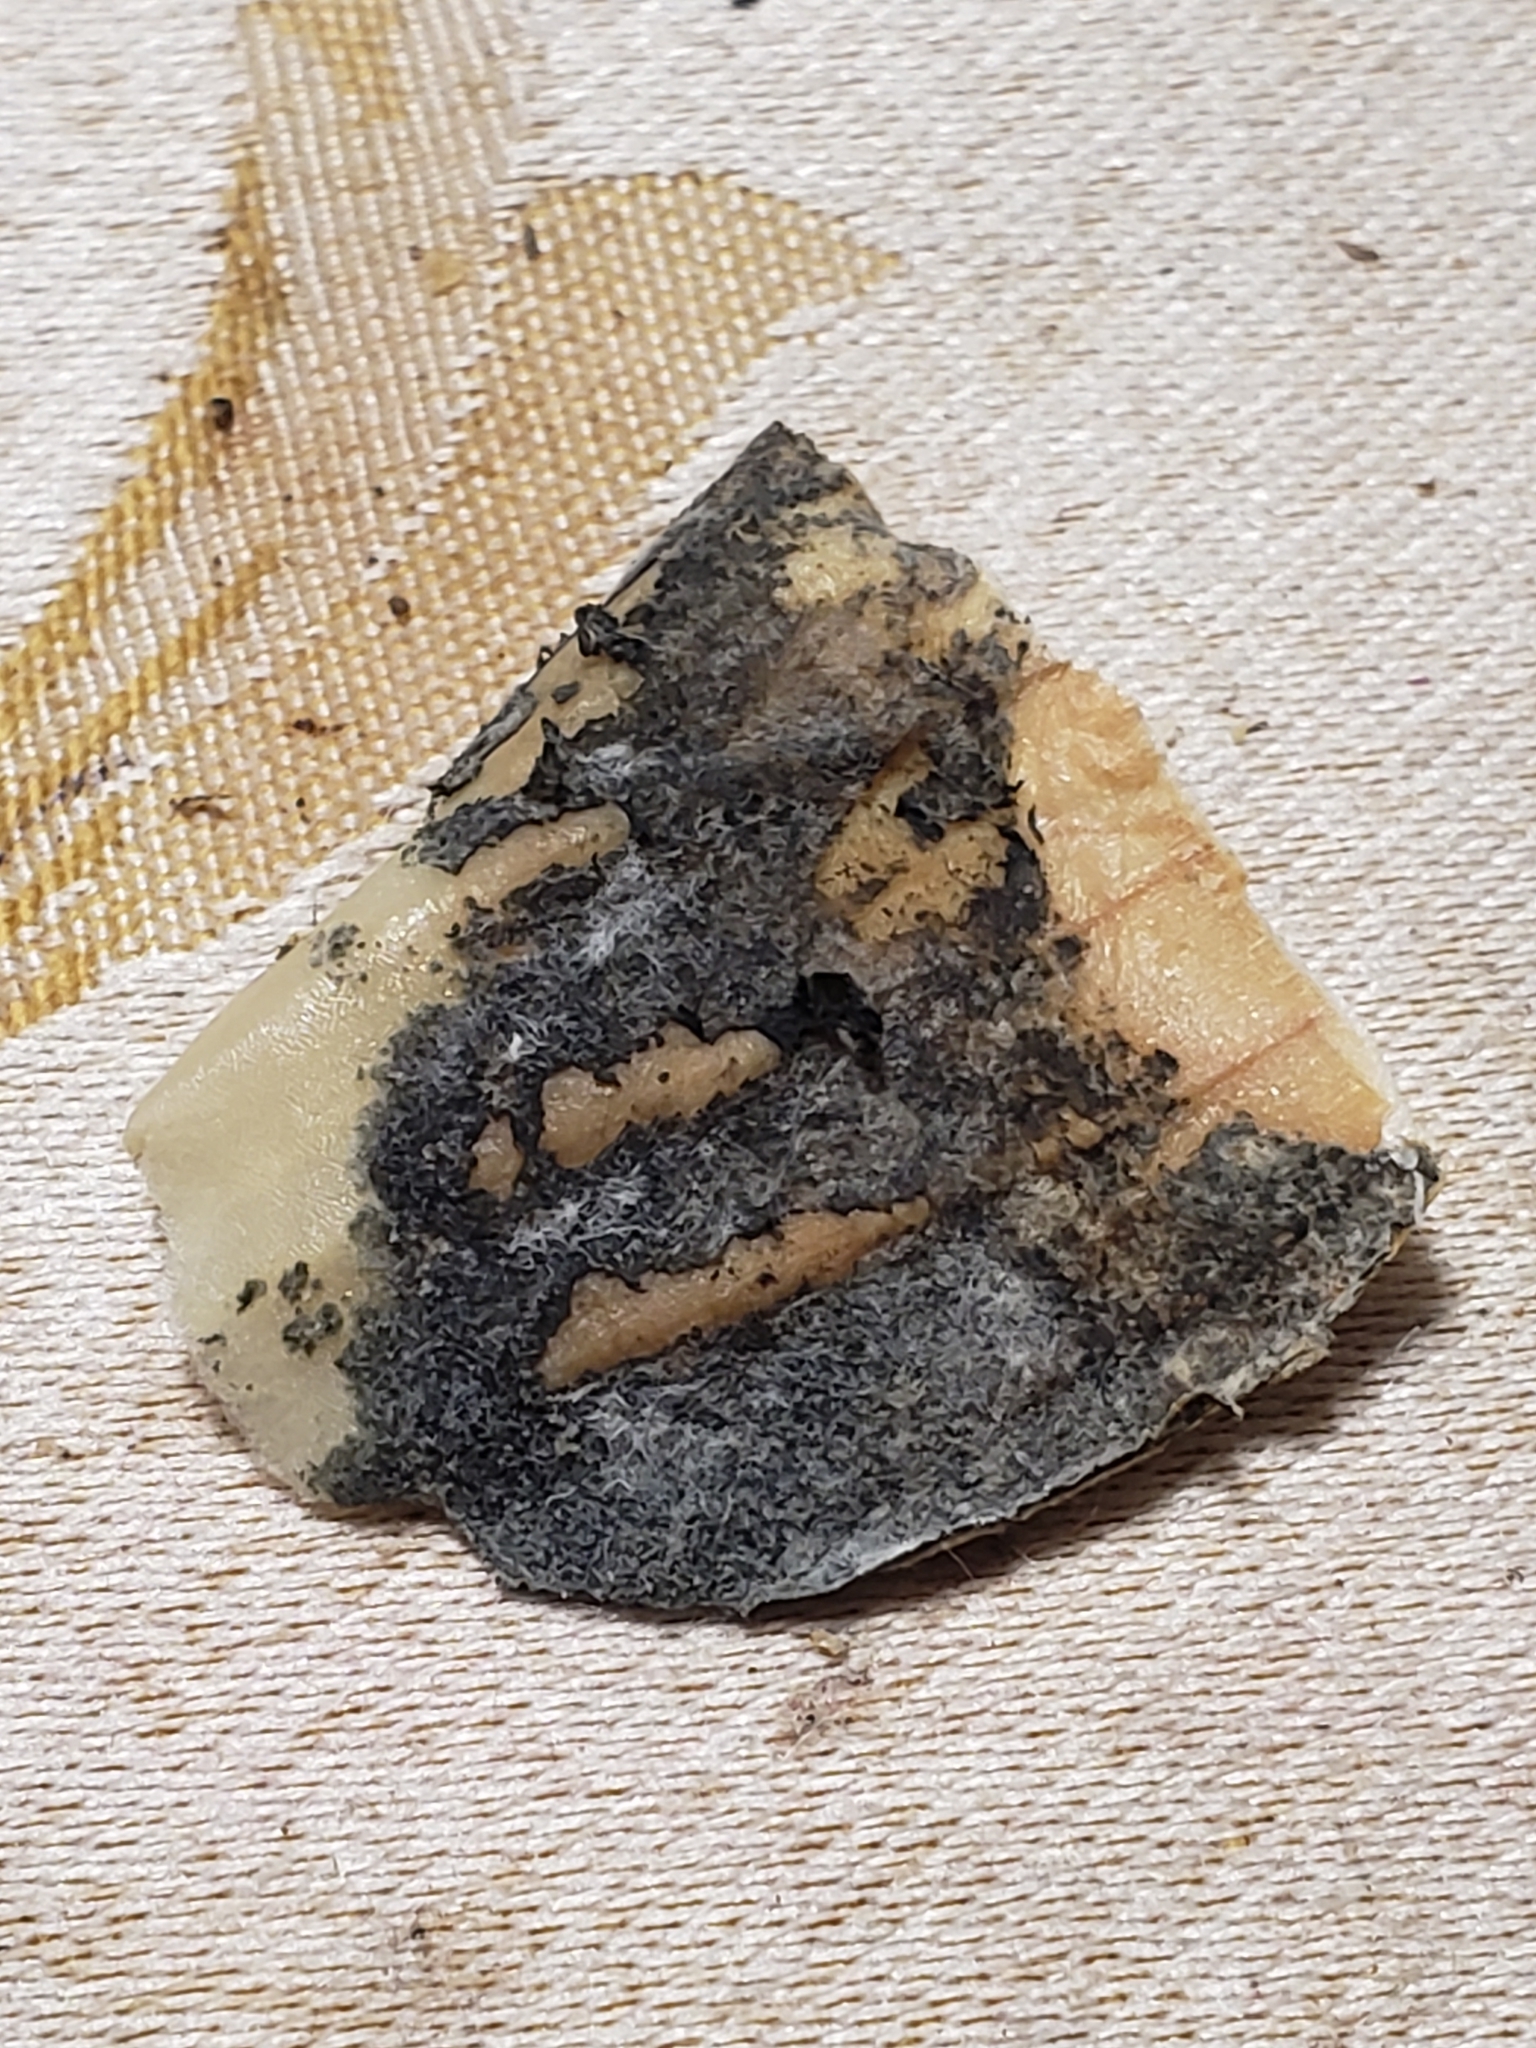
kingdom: Fungi
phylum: Ascomycota
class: Eurotiomycetes
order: Eurotiales
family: Aspergillaceae
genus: Aspergillus
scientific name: Aspergillus niger
